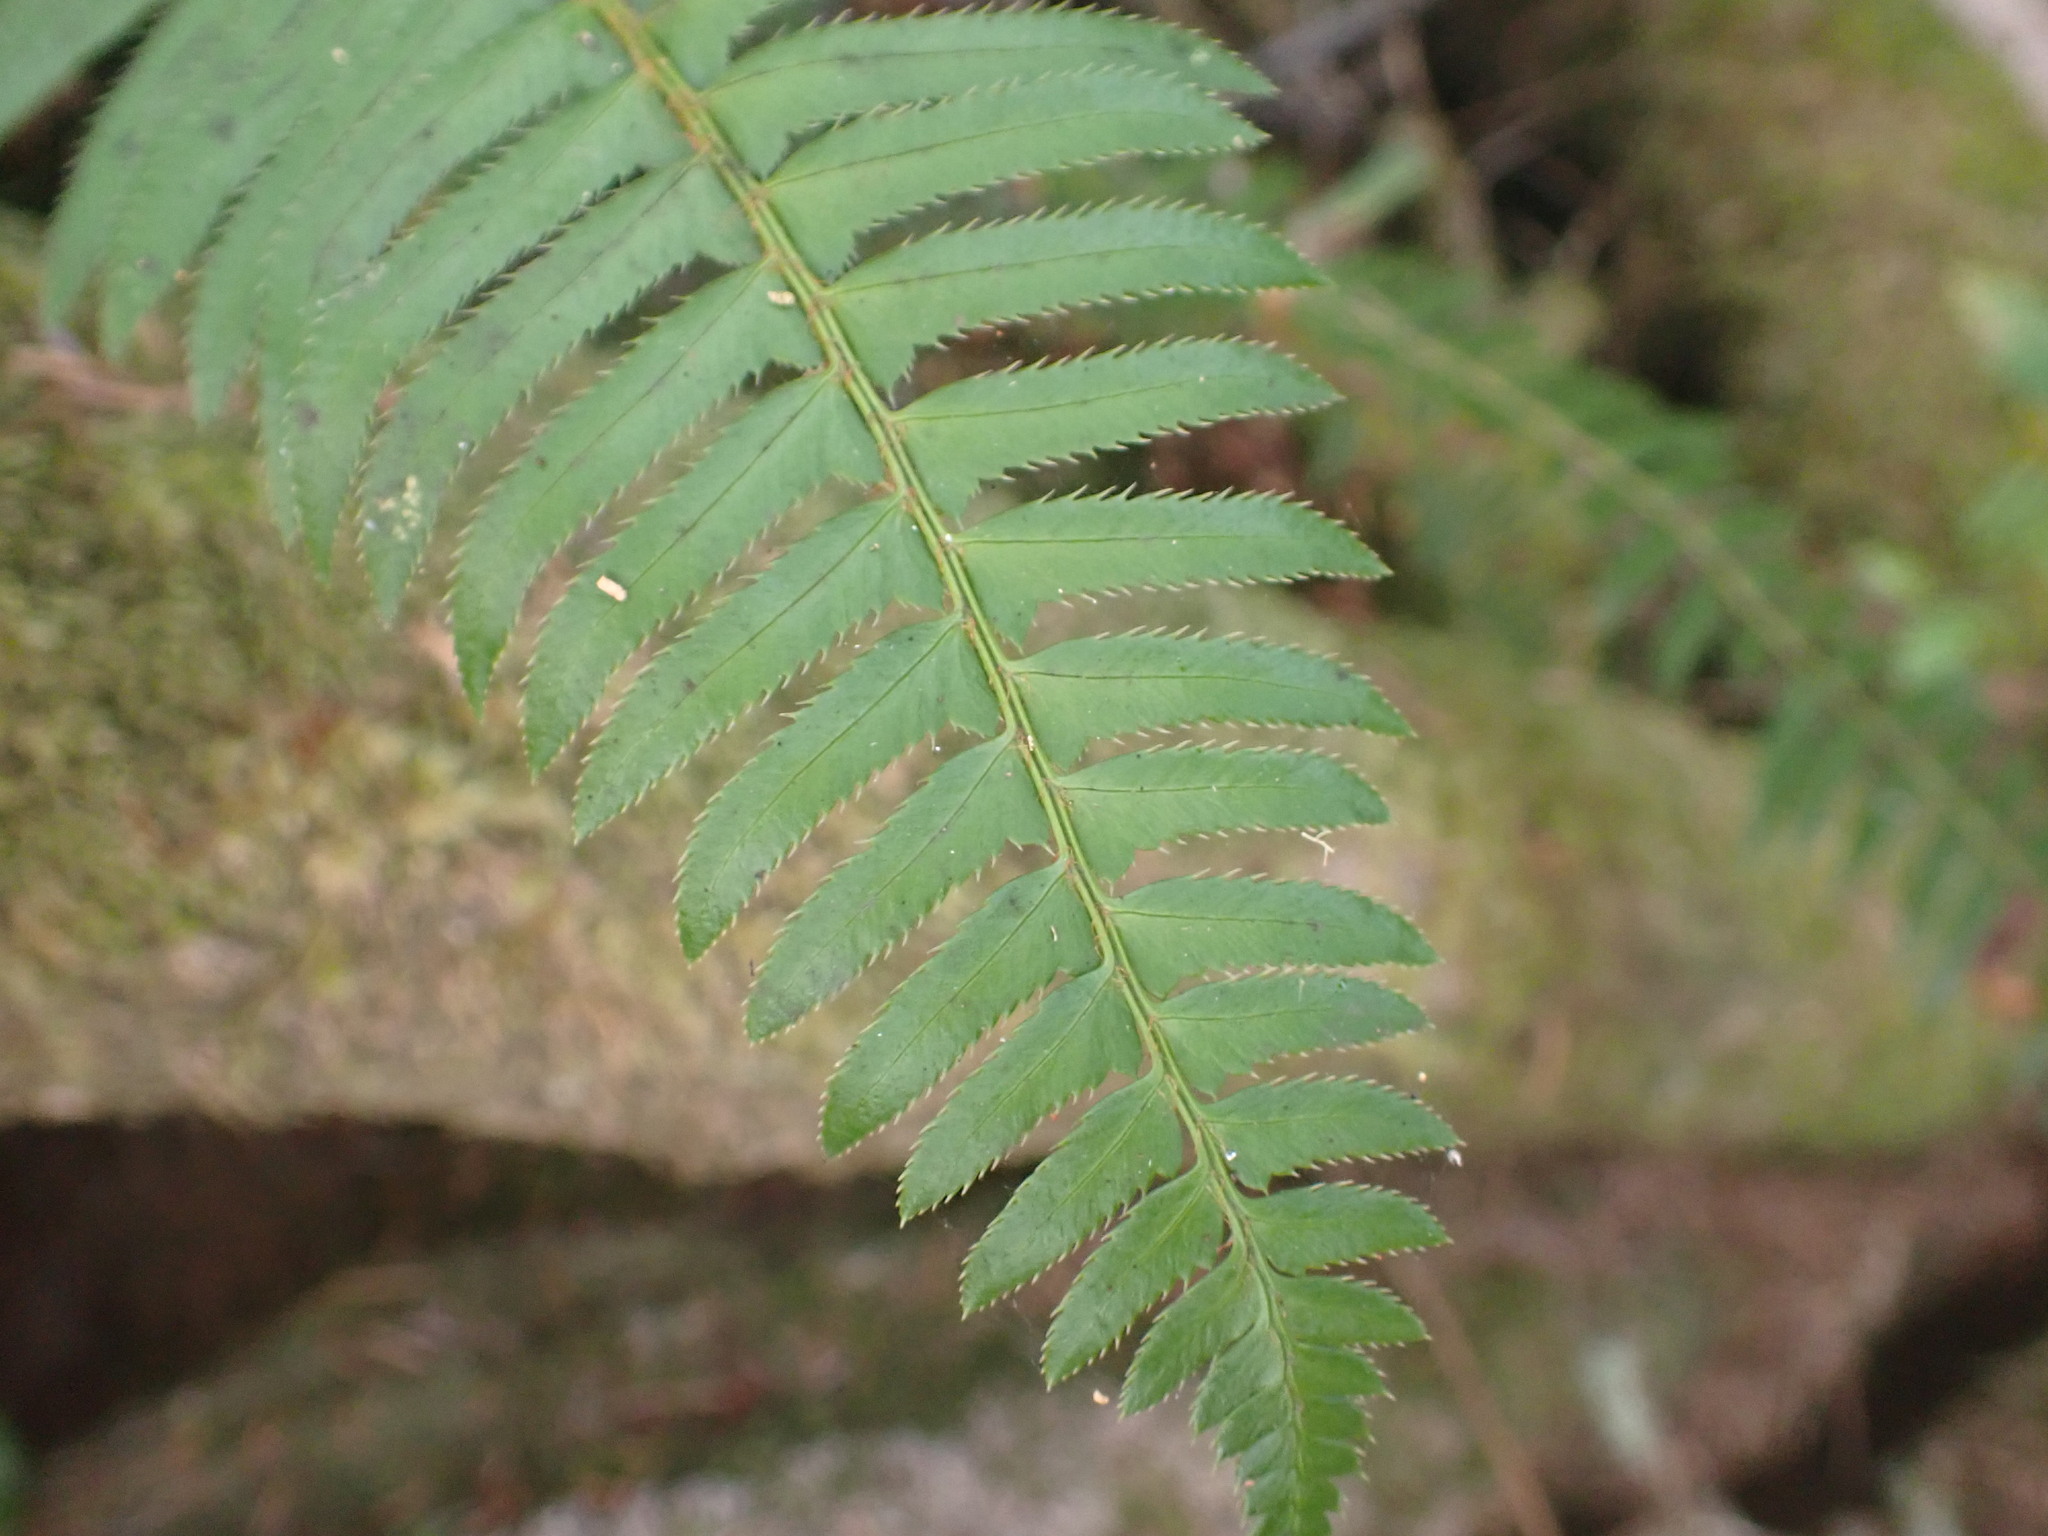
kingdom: Plantae
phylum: Tracheophyta
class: Polypodiopsida
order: Polypodiales
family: Dryopteridaceae
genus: Polystichum
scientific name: Polystichum munitum
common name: Western sword-fern
